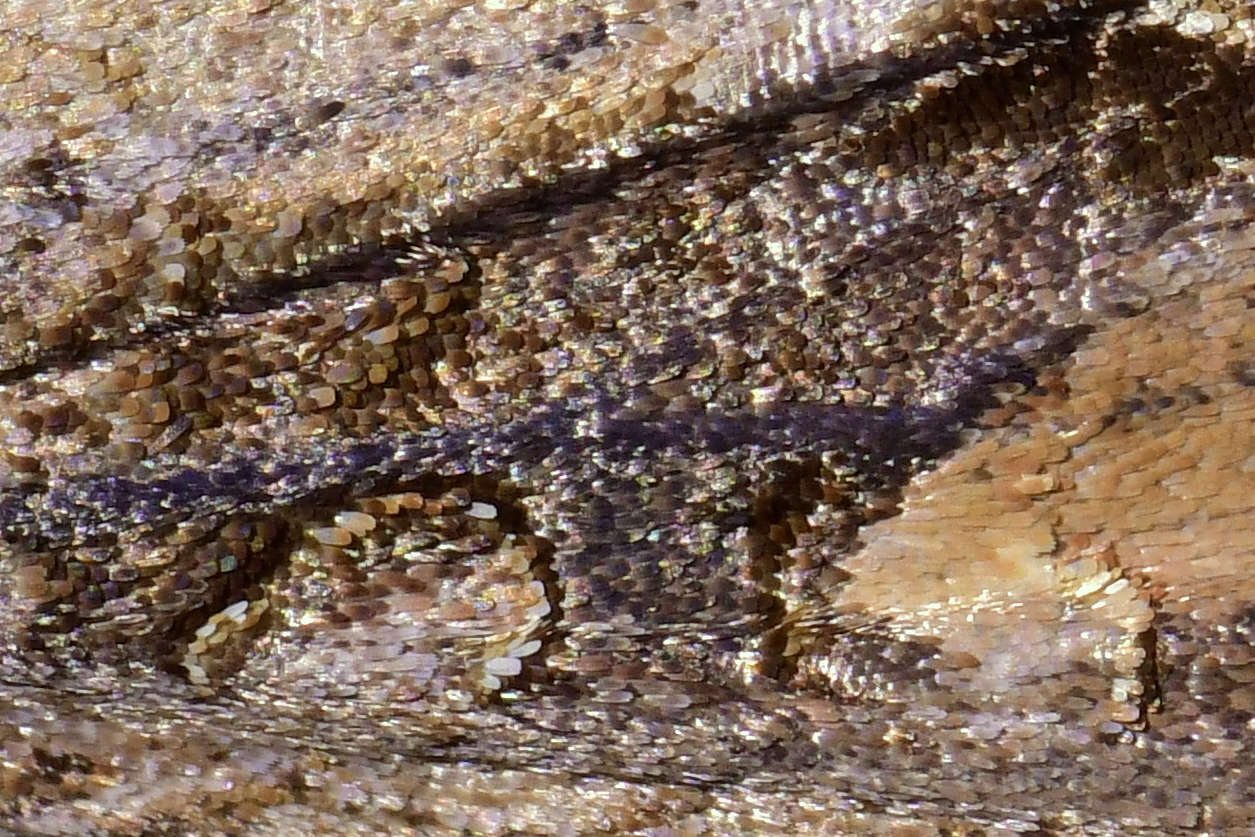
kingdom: Animalia
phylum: Arthropoda
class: Insecta
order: Lepidoptera
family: Noctuidae
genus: Ichneutica
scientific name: Ichneutica
